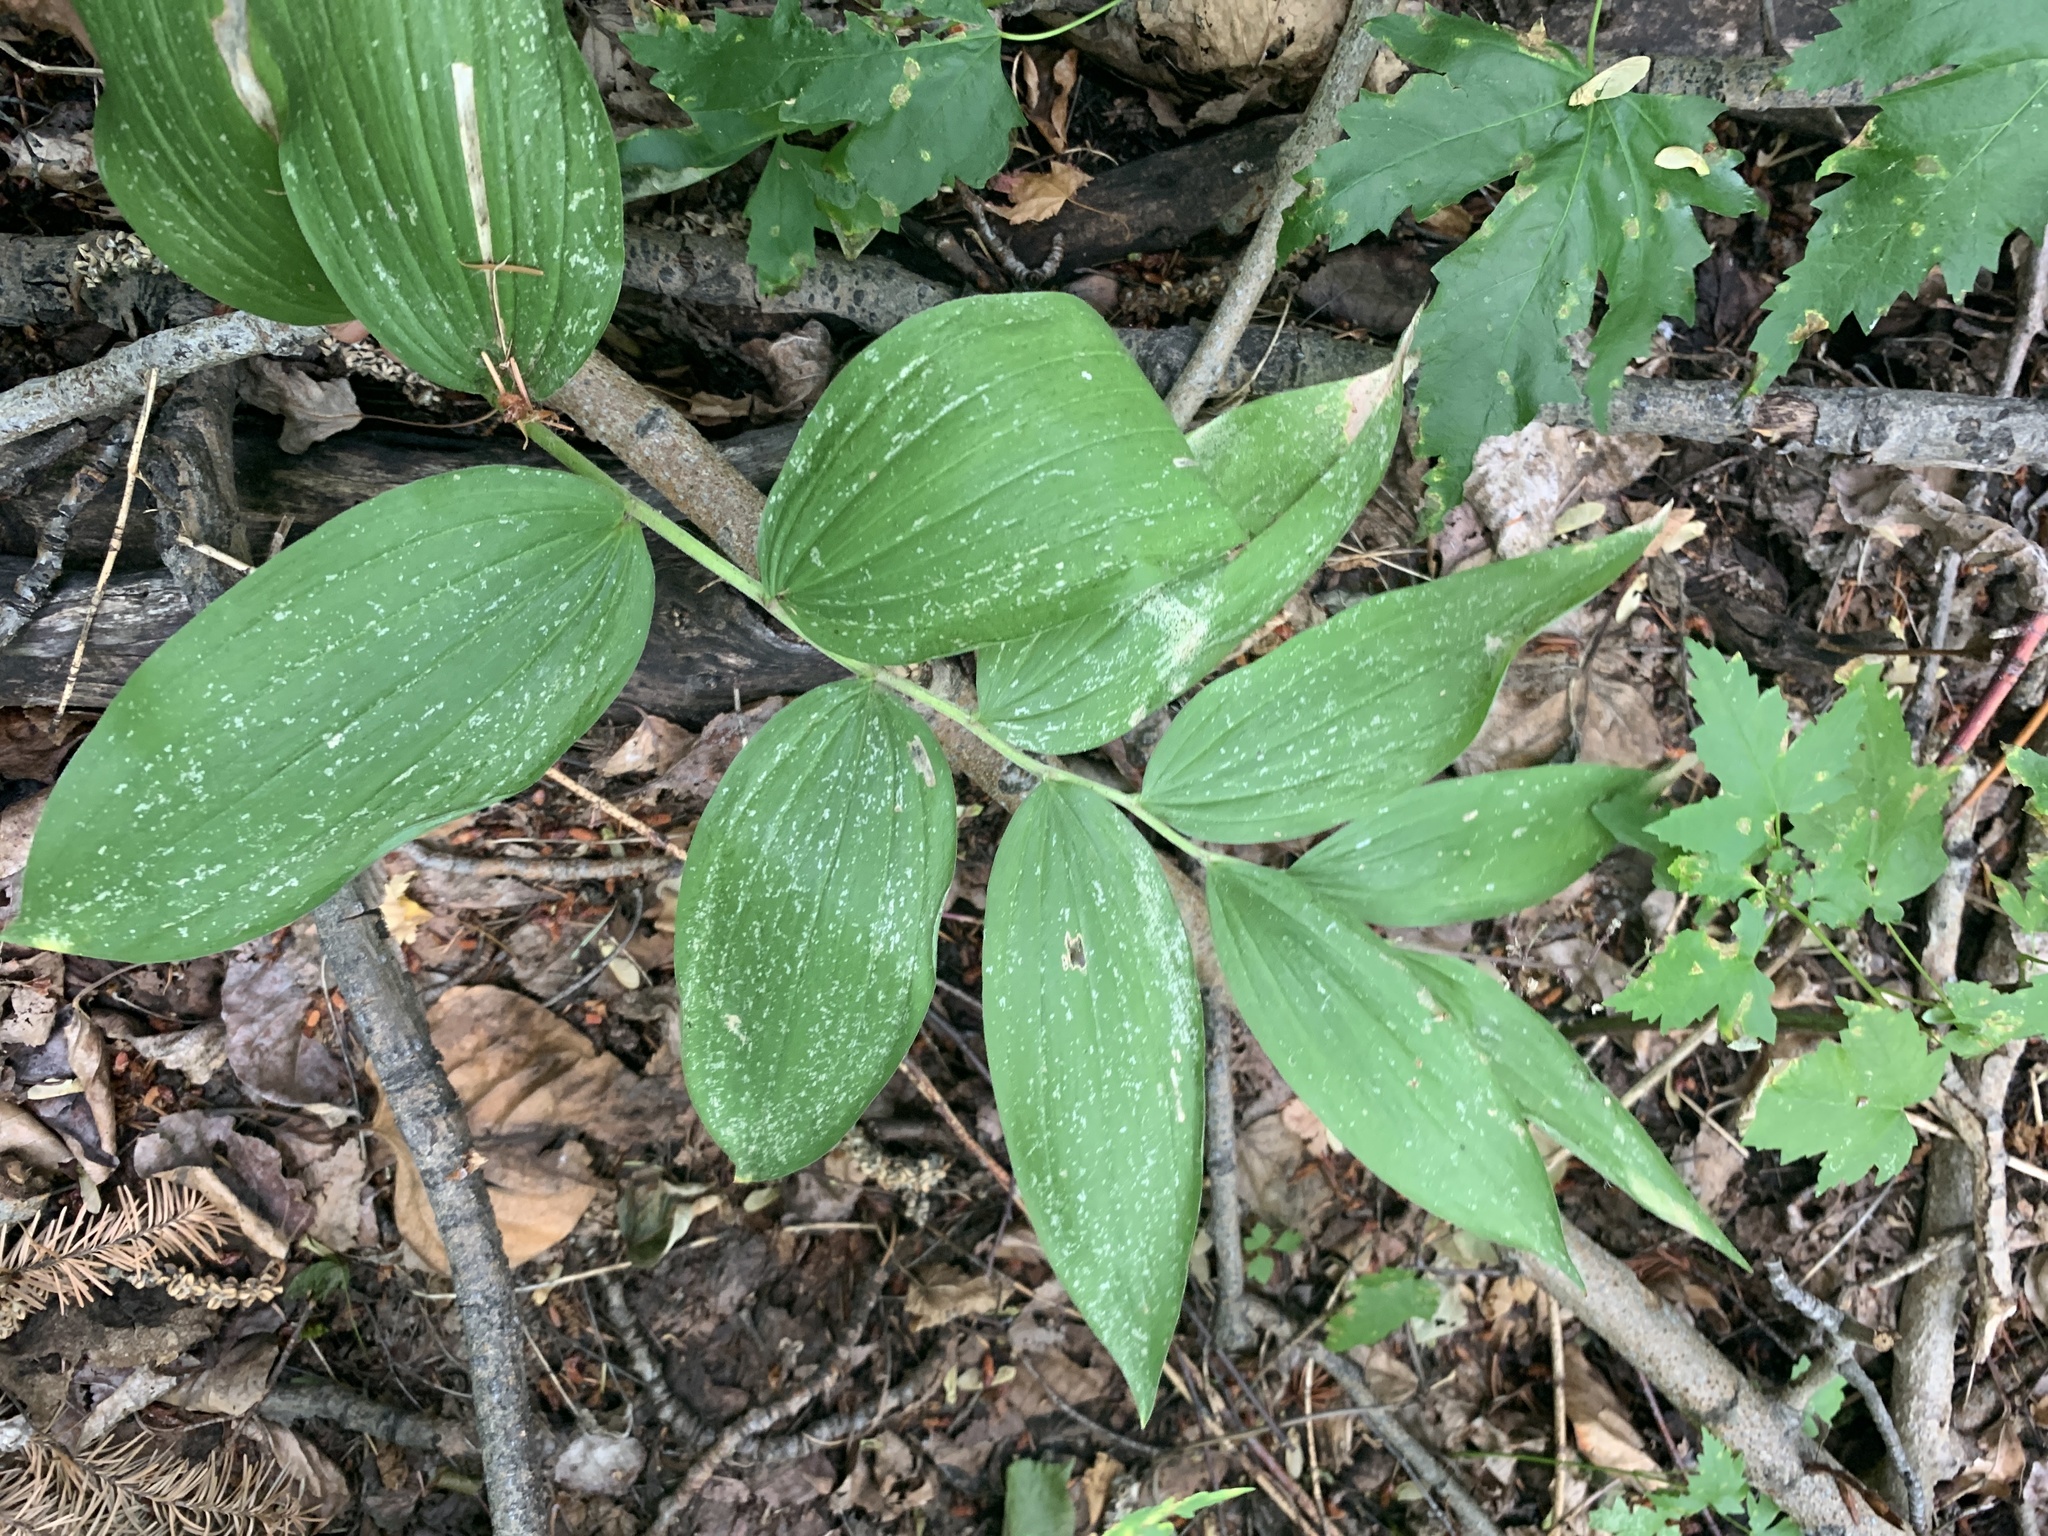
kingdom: Plantae
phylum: Tracheophyta
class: Liliopsida
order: Asparagales
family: Asparagaceae
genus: Maianthemum
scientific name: Maianthemum racemosum
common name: False spikenard
